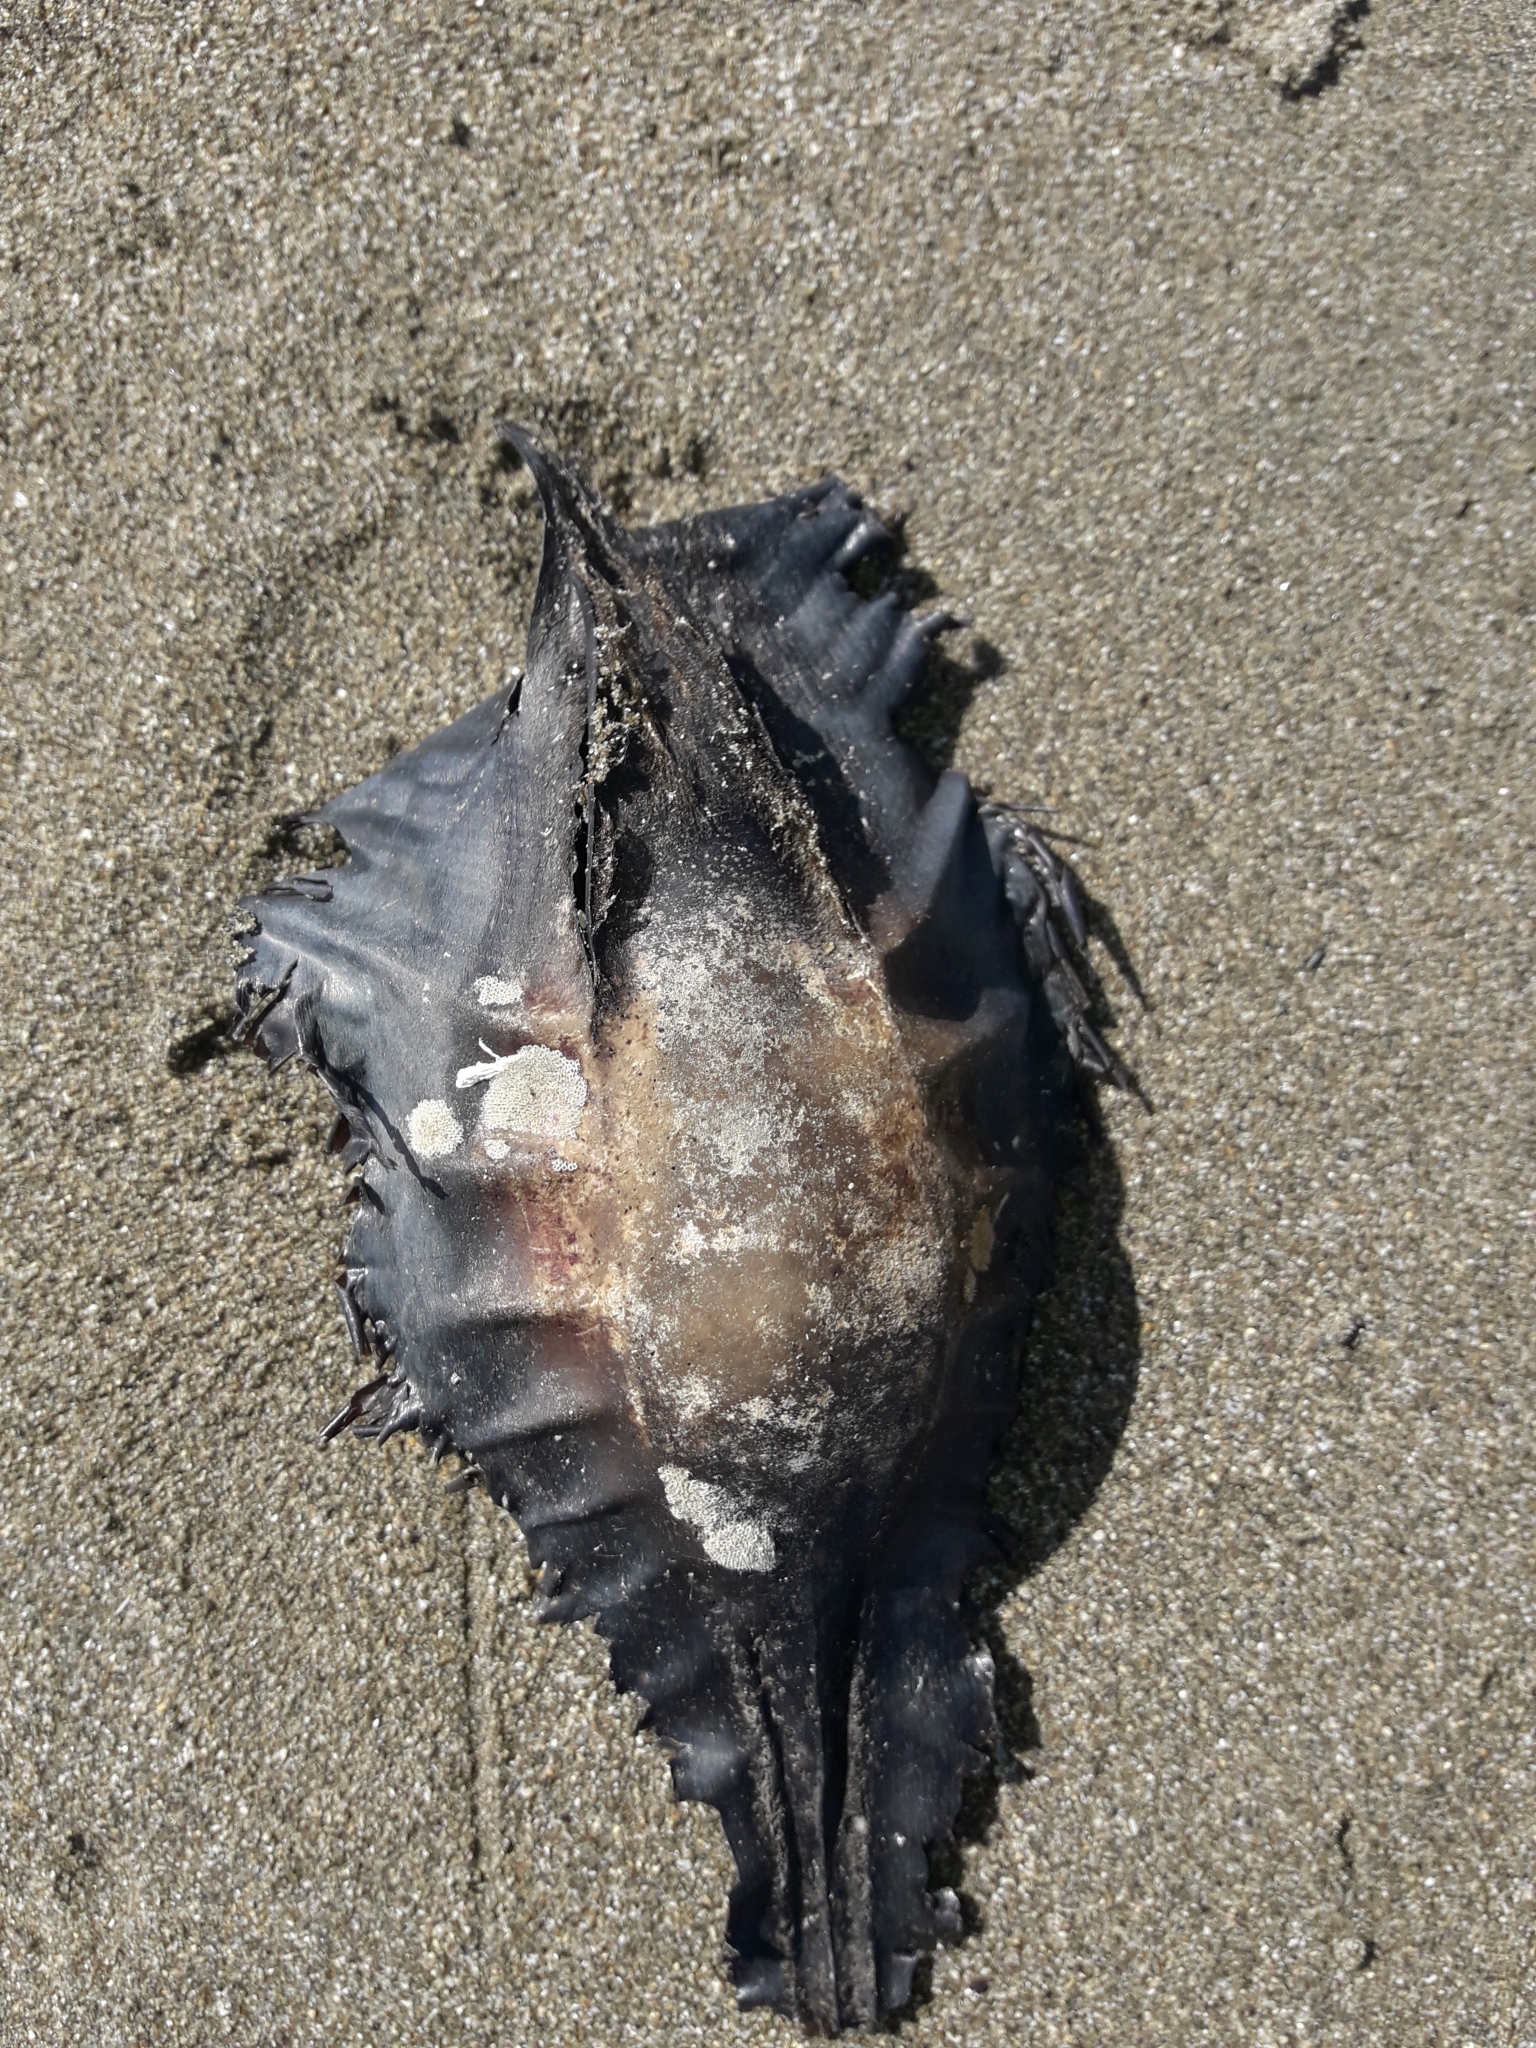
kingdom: Animalia
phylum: Chordata
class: Holocephali
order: Chimaeriformes
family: Callorhinchidae
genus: Callorhinchus
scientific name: Callorhinchus milii
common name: Elephant fish
